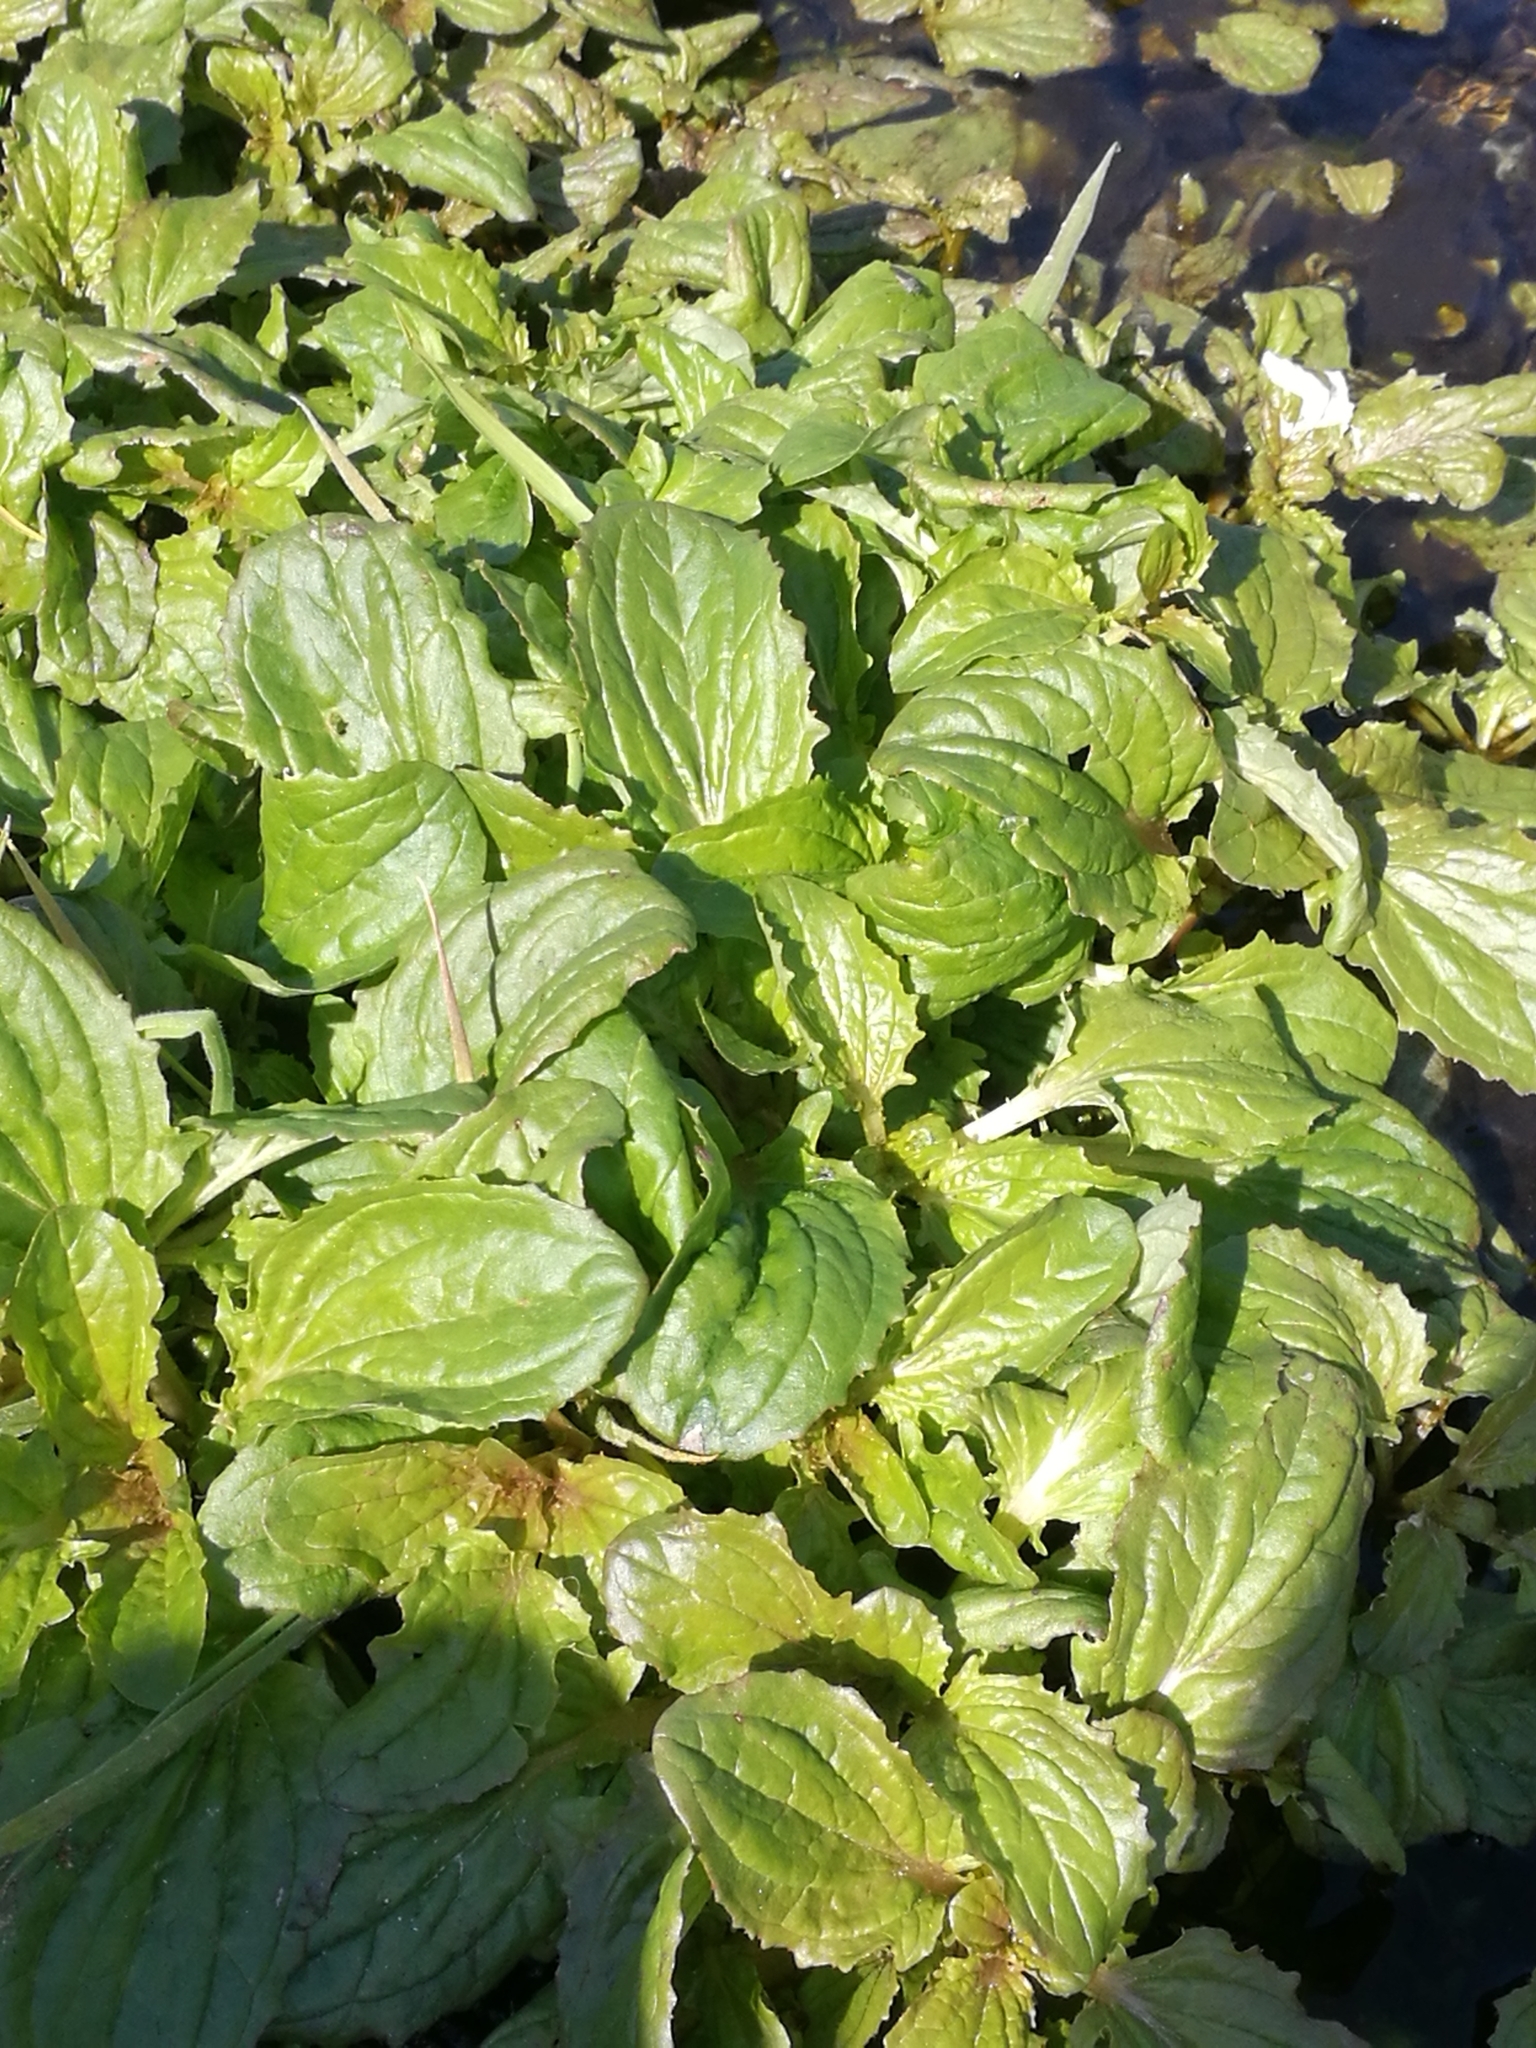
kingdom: Plantae
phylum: Tracheophyta
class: Magnoliopsida
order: Lamiales
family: Phrymaceae
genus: Erythranthe
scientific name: Erythranthe guttata
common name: Monkeyflower
